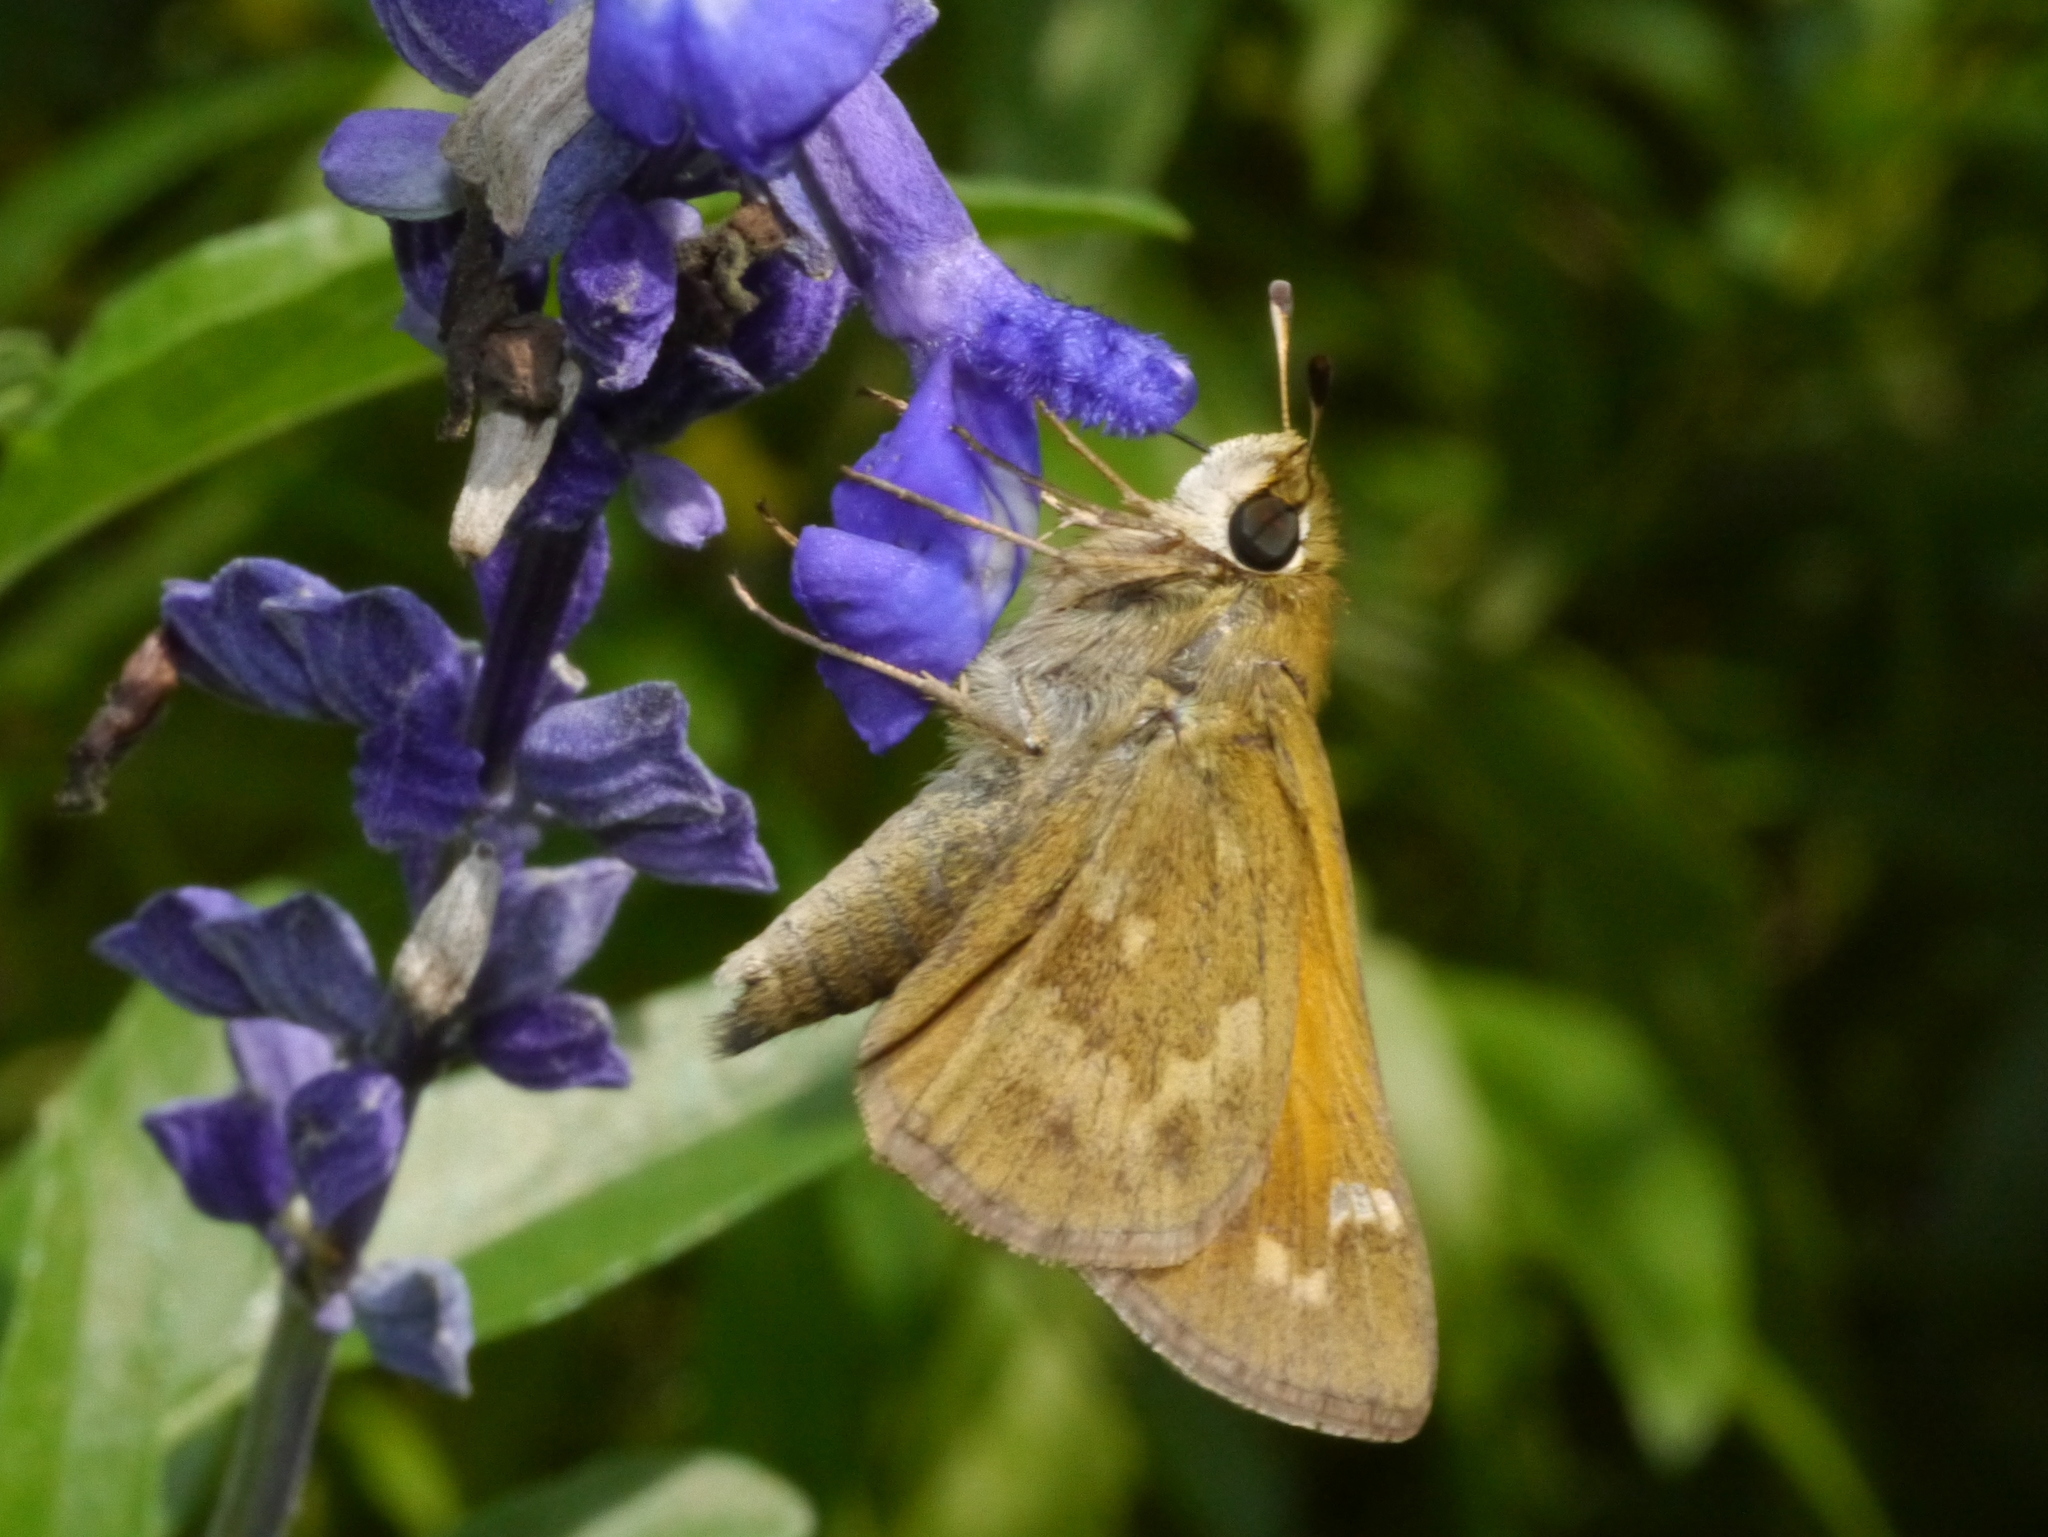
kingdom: Animalia
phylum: Arthropoda
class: Insecta
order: Lepidoptera
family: Hesperiidae
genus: Atalopedes
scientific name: Atalopedes
